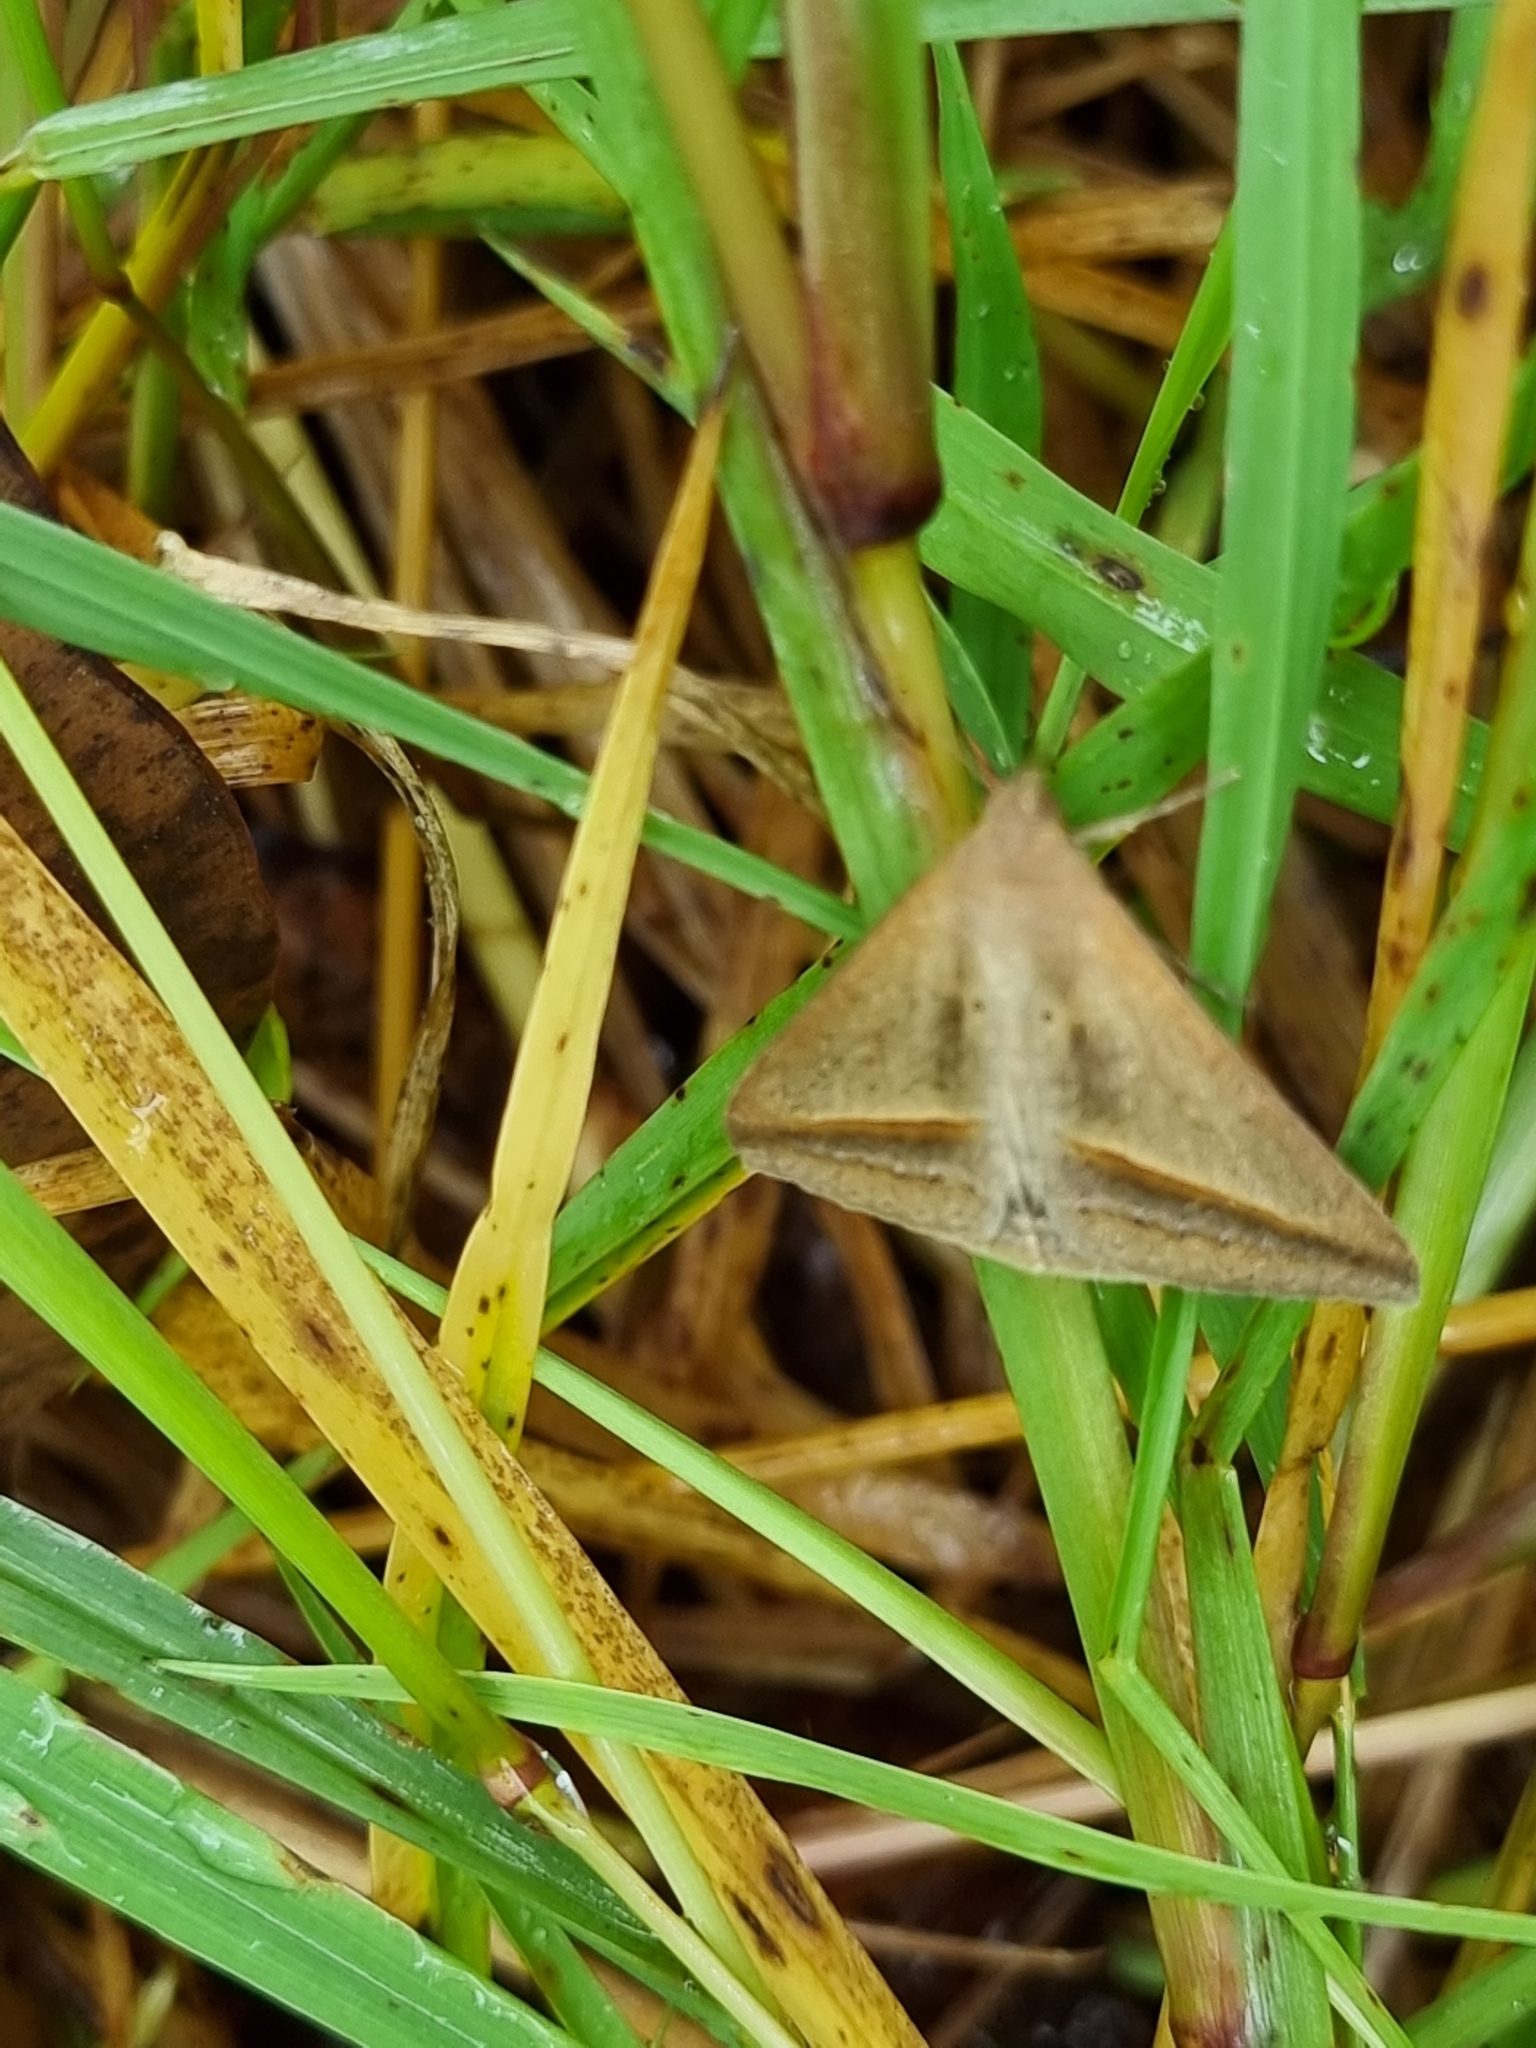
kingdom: Animalia
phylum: Arthropoda
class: Insecta
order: Lepidoptera
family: Erebidae
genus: Mocis
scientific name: Mocis frugalis
